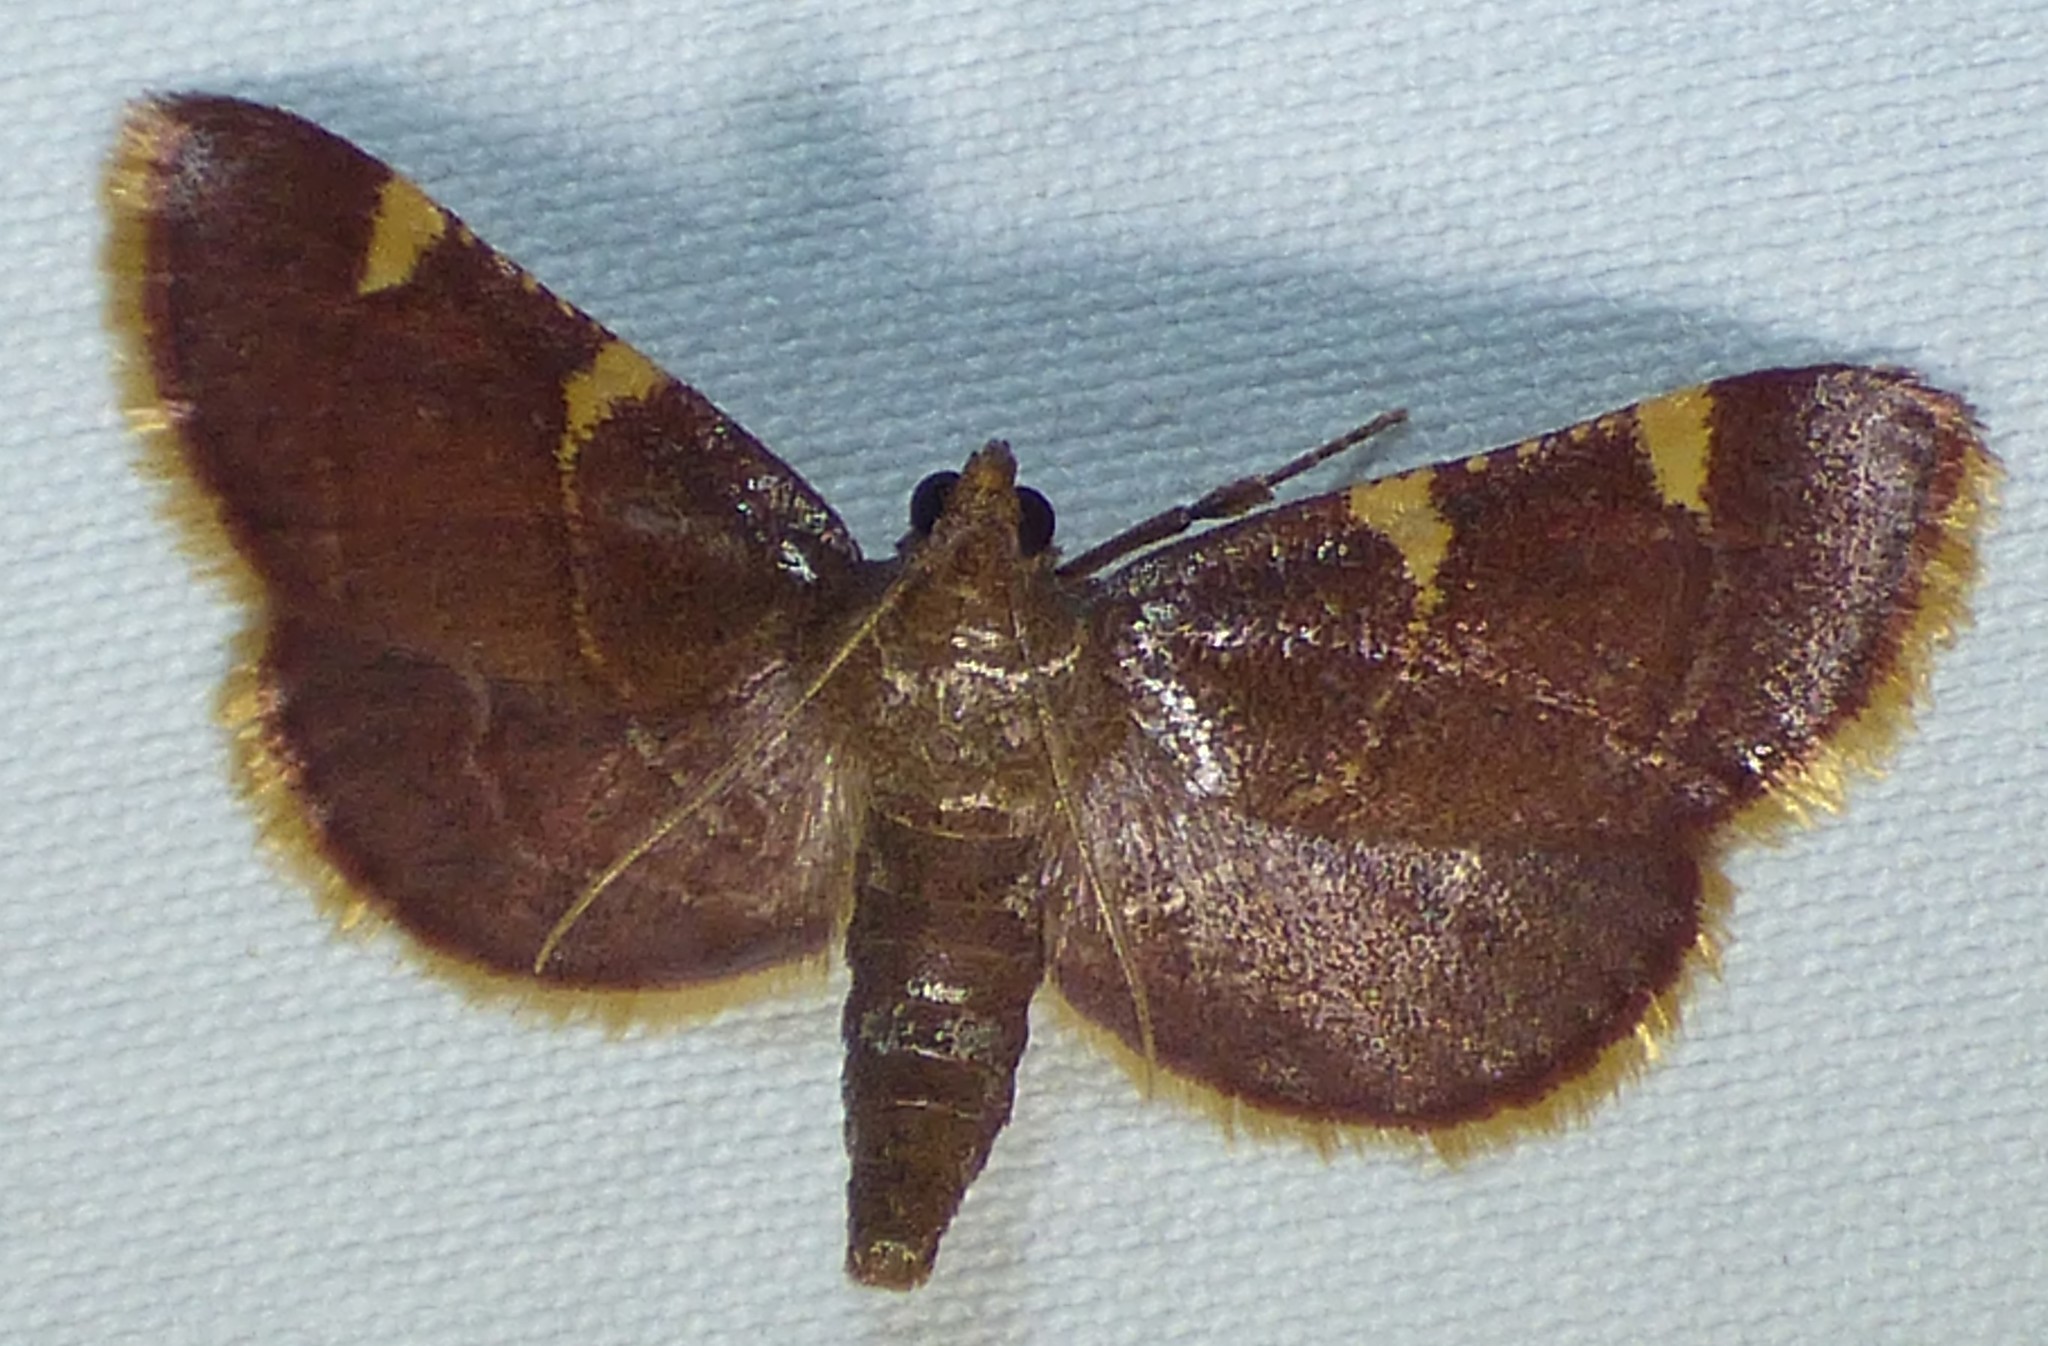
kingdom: Animalia
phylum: Arthropoda
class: Insecta
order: Lepidoptera
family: Pyralidae
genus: Hypsopygia
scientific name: Hypsopygia olinalis
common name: Yellow-fringed dolichomia moth
